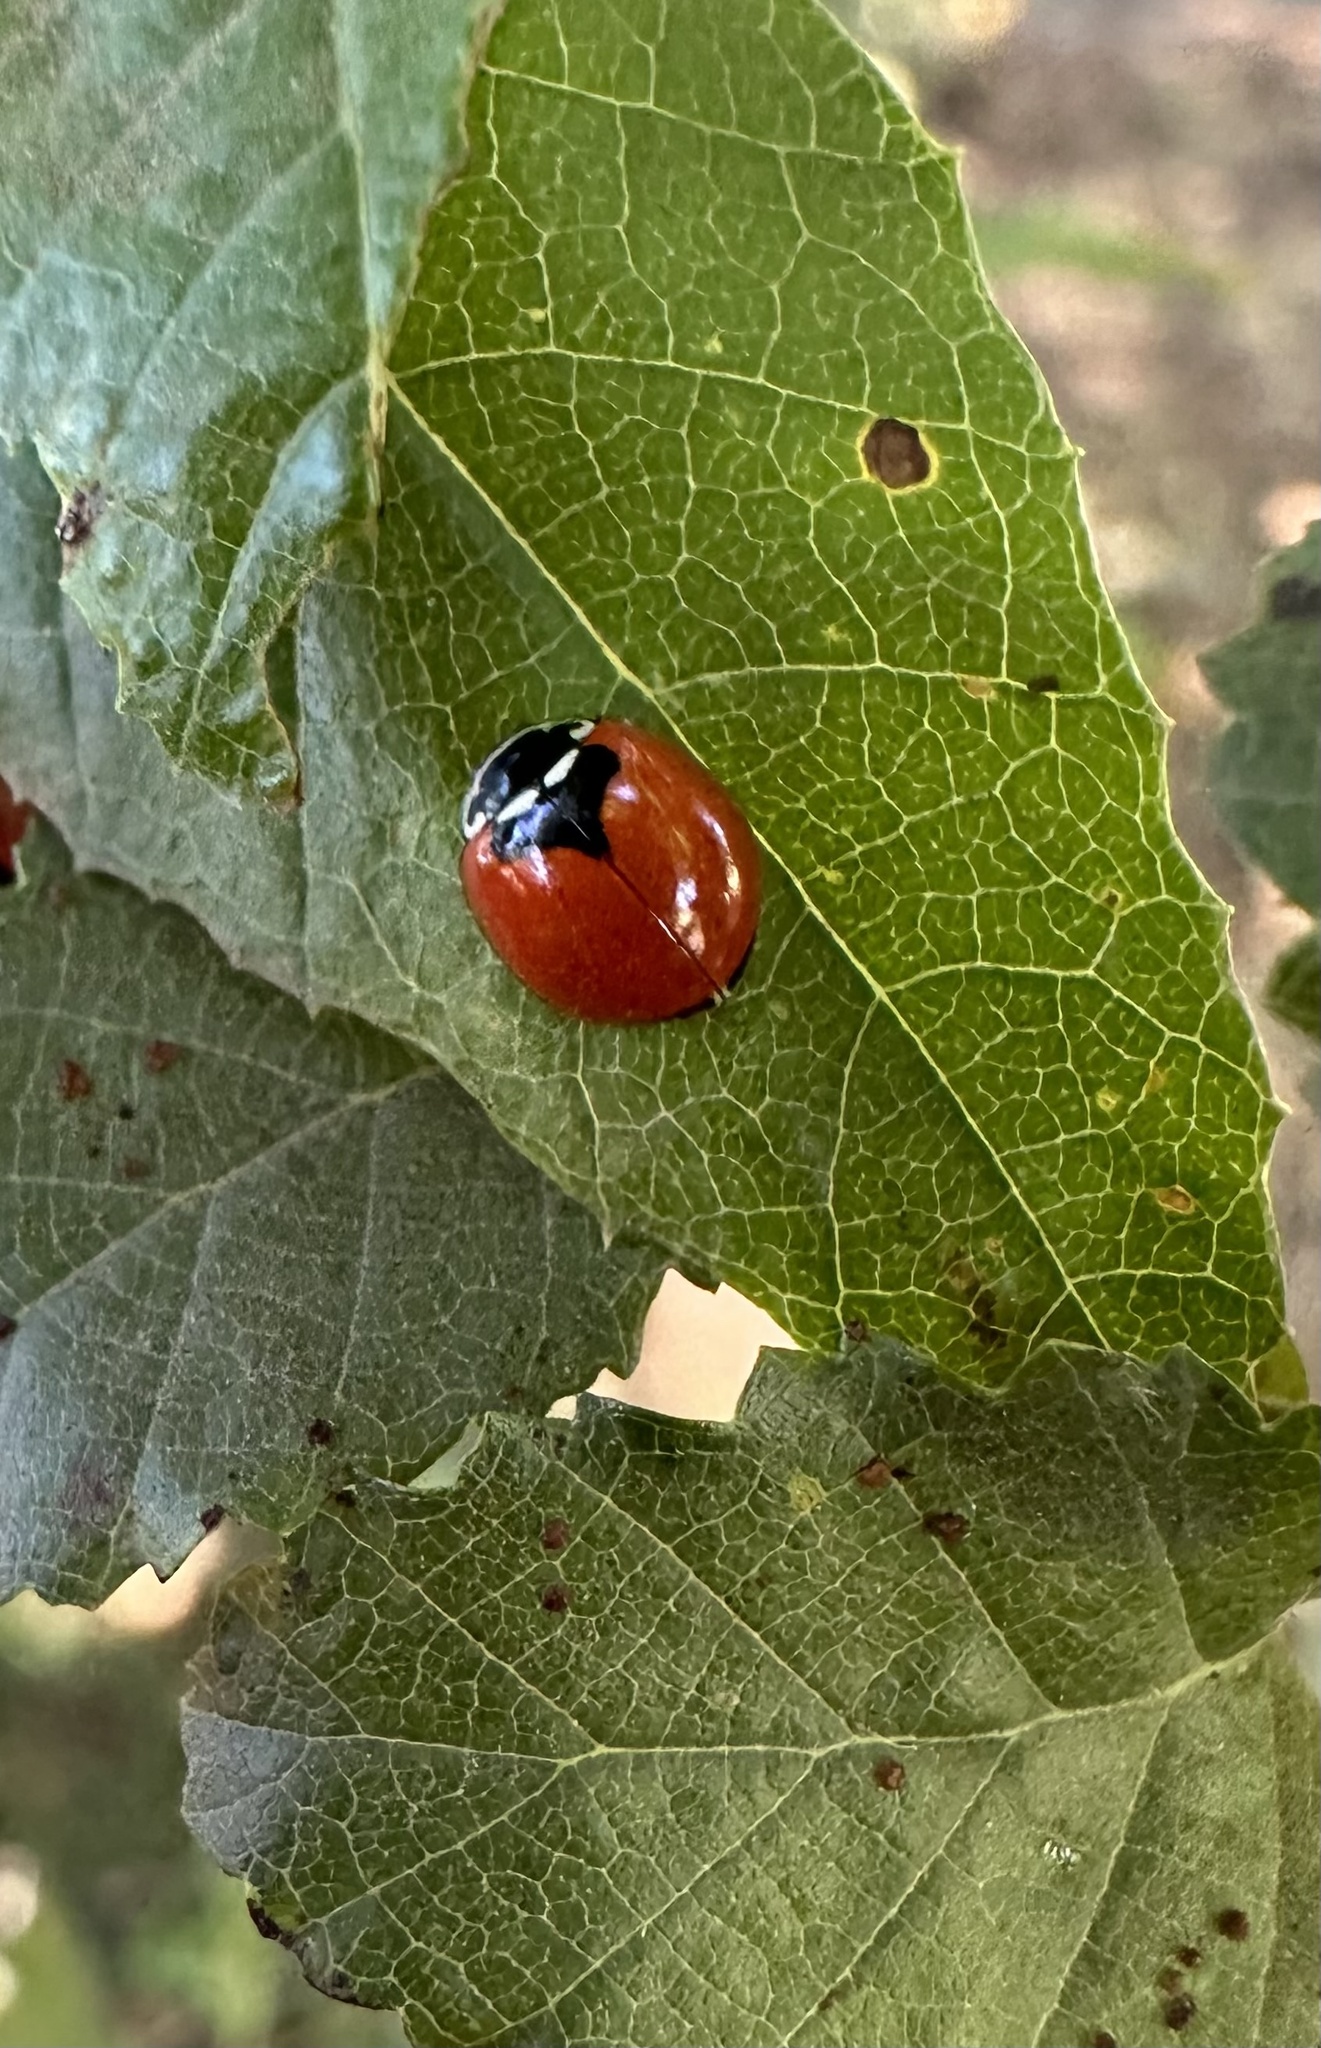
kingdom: Animalia
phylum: Arthropoda
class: Insecta
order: Coleoptera
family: Coccinellidae
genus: Adalia
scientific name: Adalia deficiens
